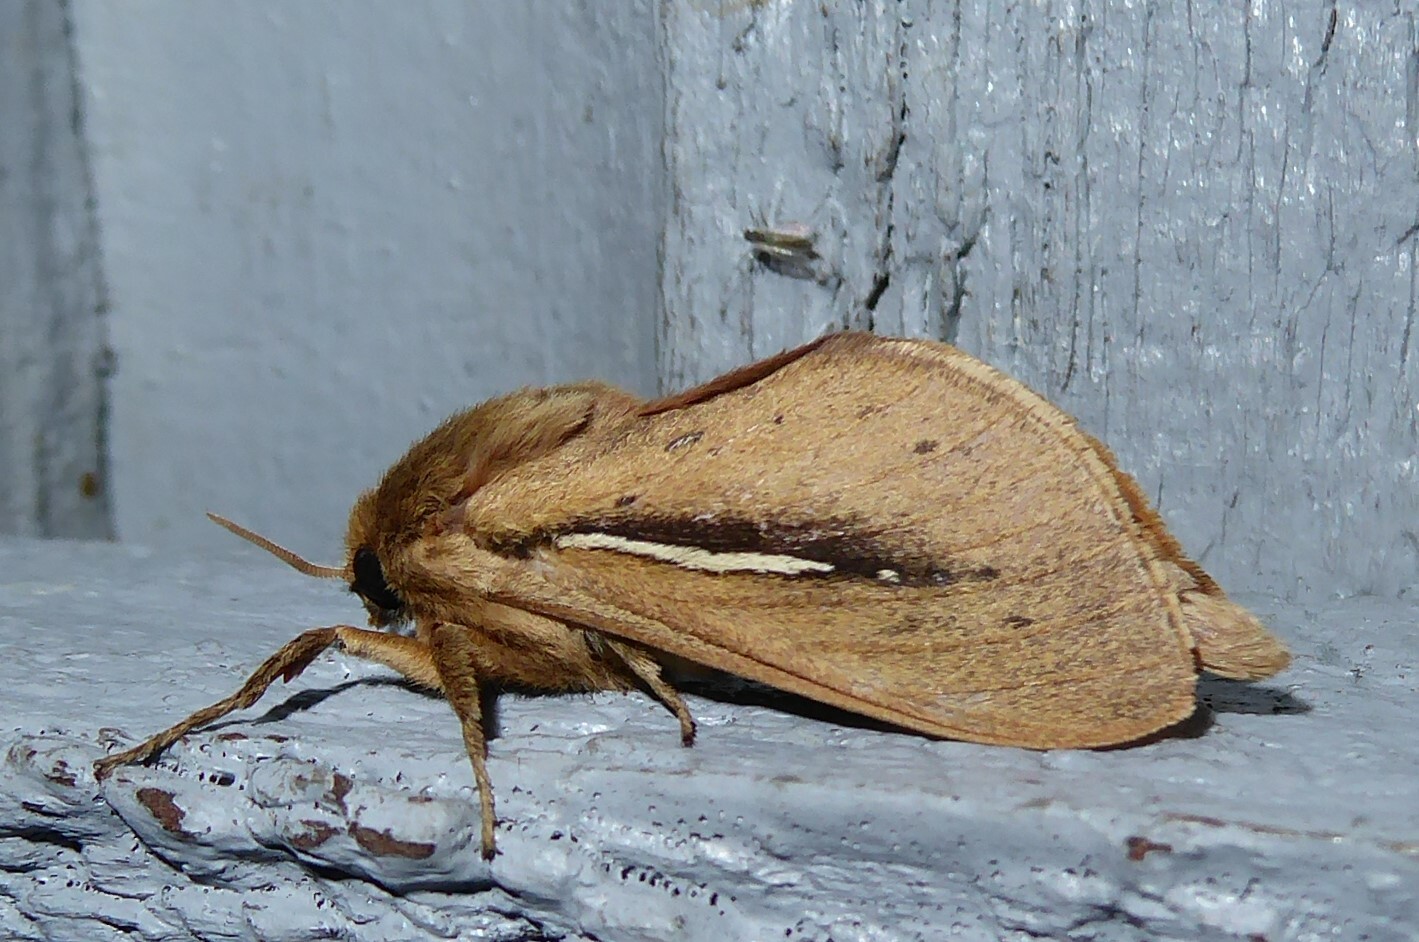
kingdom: Animalia
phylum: Arthropoda
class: Insecta
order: Lepidoptera
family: Hepialidae
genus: Wiseana
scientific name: Wiseana umbraculatus
